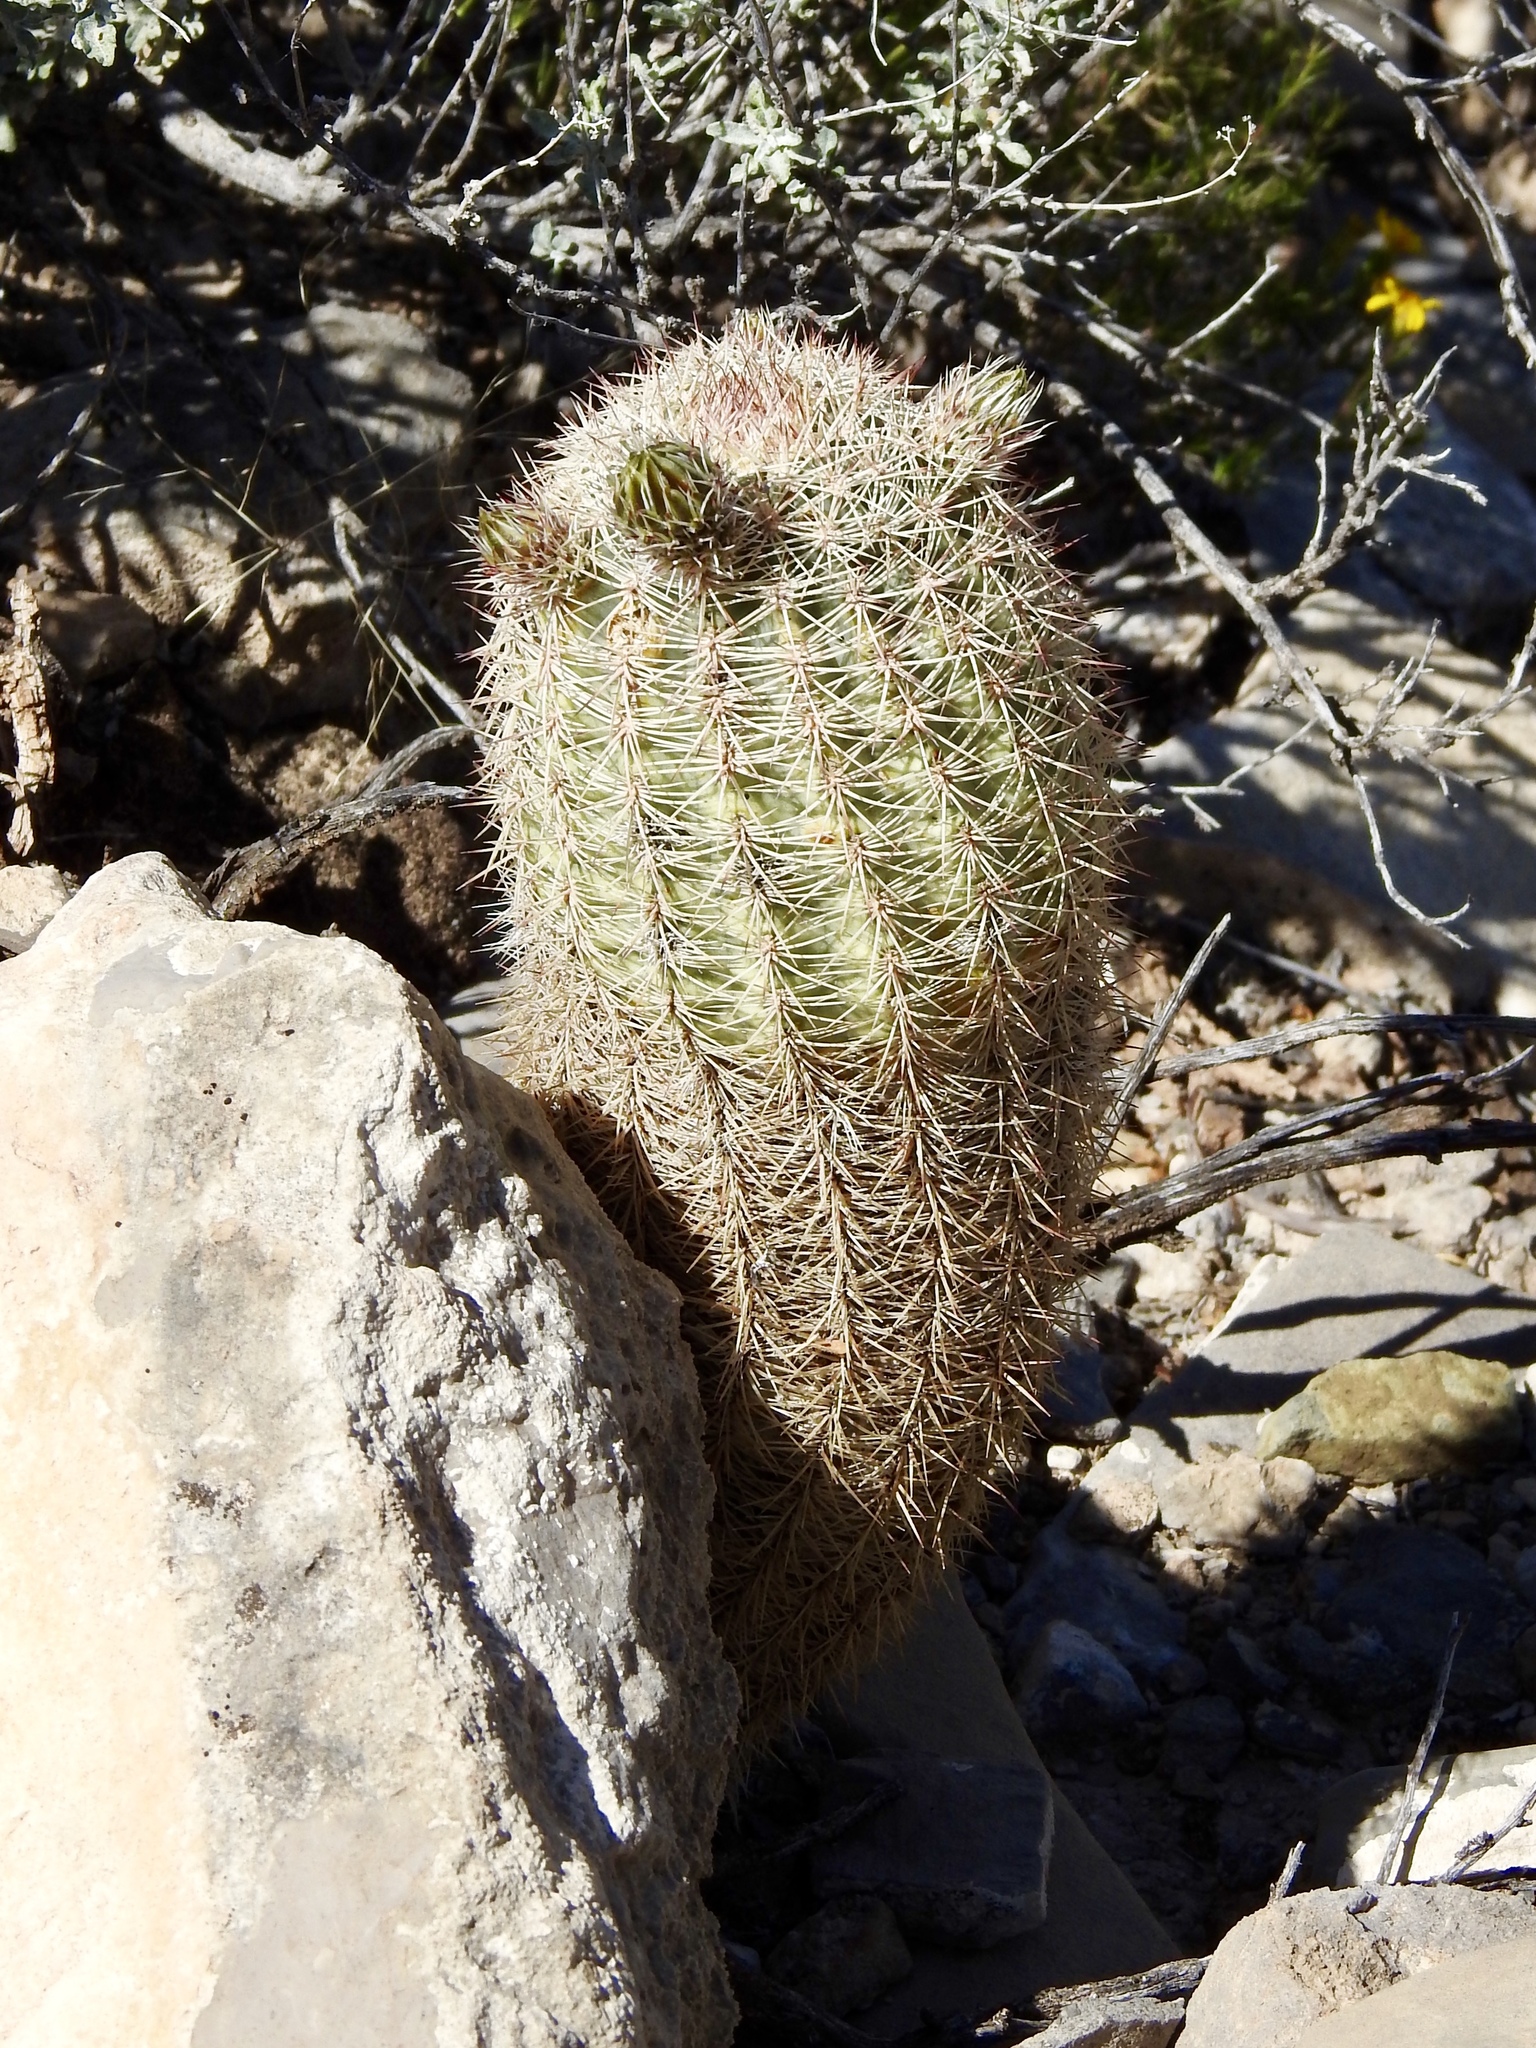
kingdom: Plantae
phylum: Tracheophyta
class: Magnoliopsida
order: Caryophyllales
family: Cactaceae
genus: Echinocereus
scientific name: Echinocereus dasyacanthus
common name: Spiny hedgehog cactus
